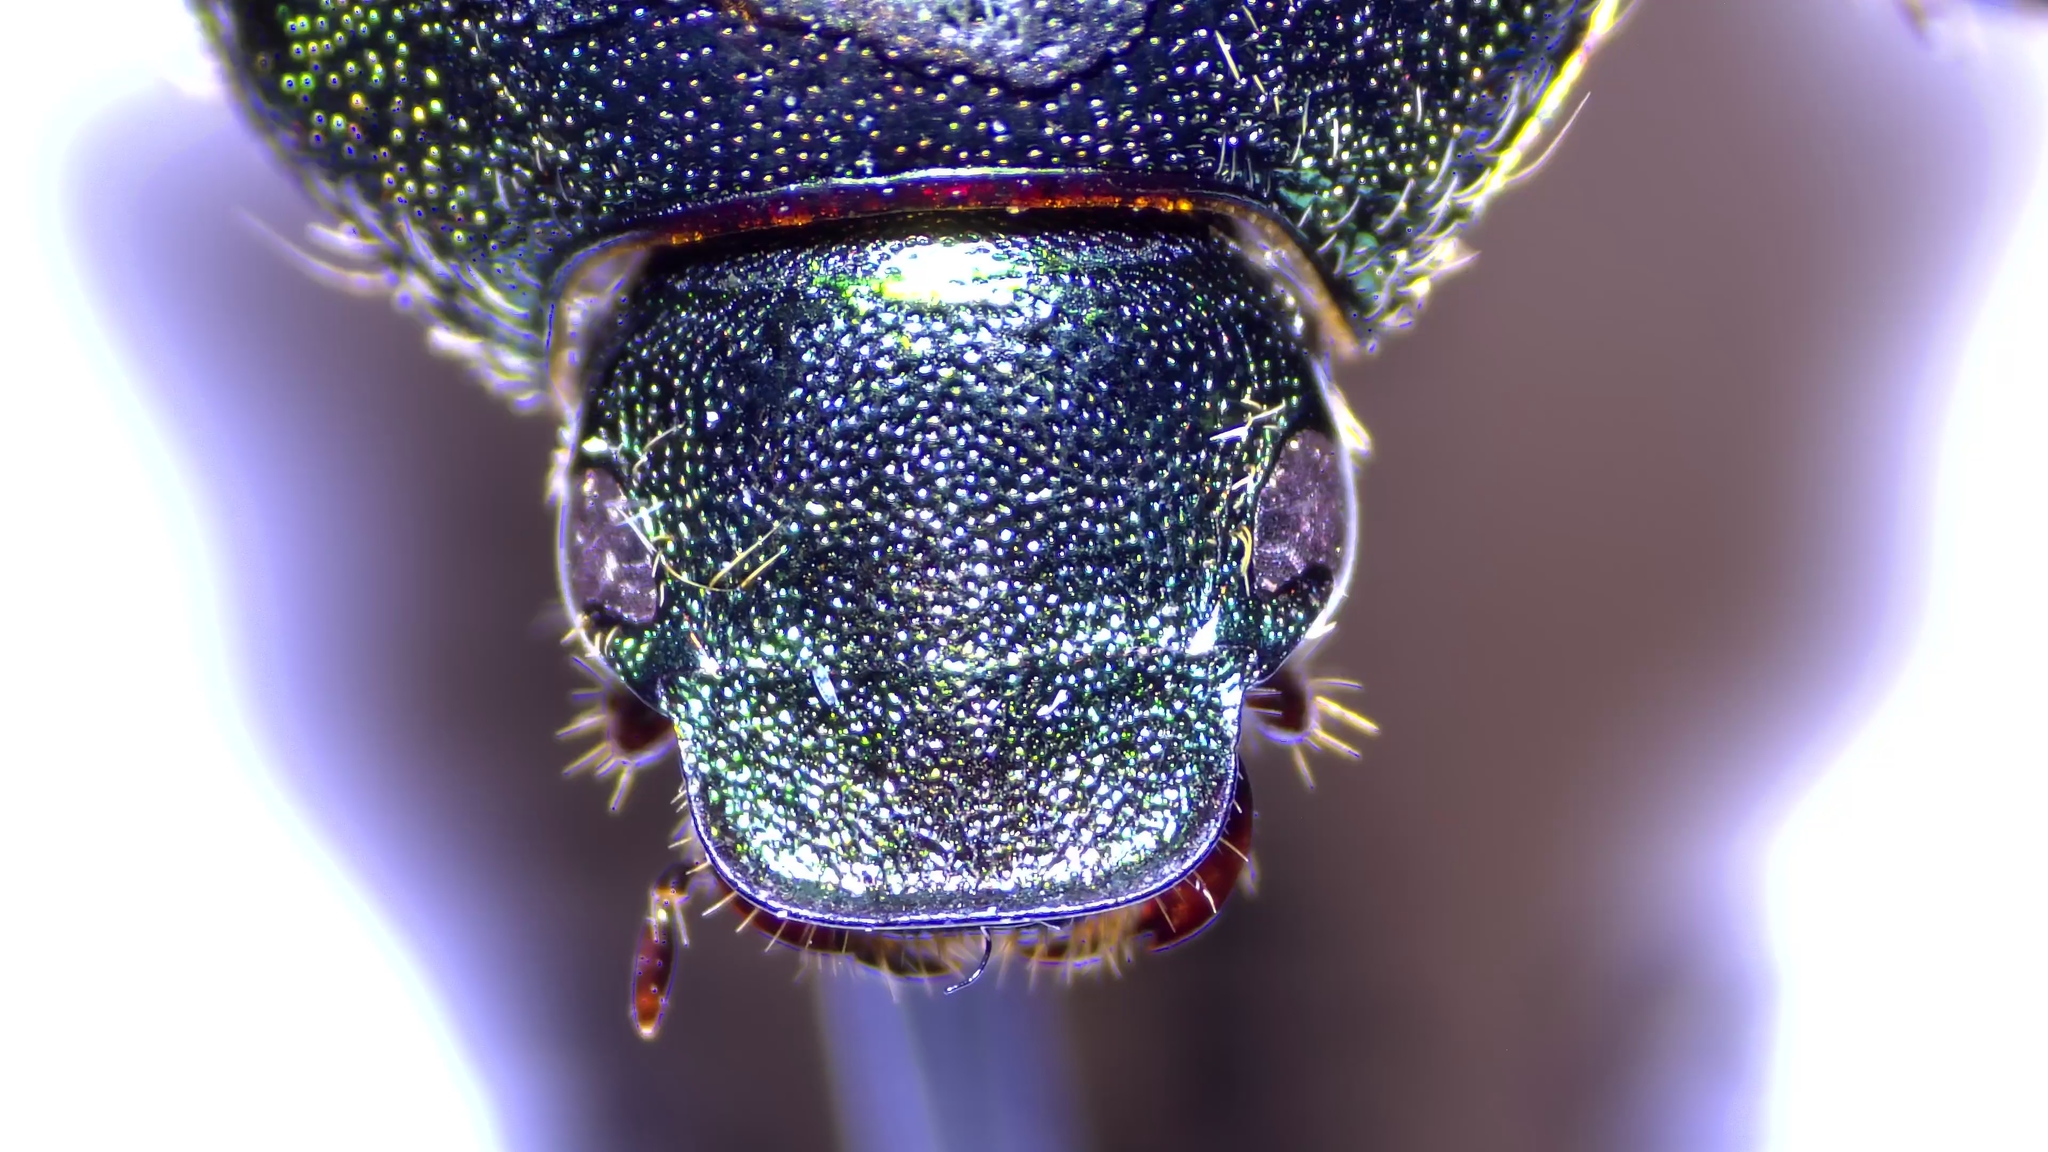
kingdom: Animalia
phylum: Arthropoda
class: Insecta
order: Coleoptera
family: Scarabaeidae
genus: Popillia
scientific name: Popillia japonica
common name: Japanese beetle
